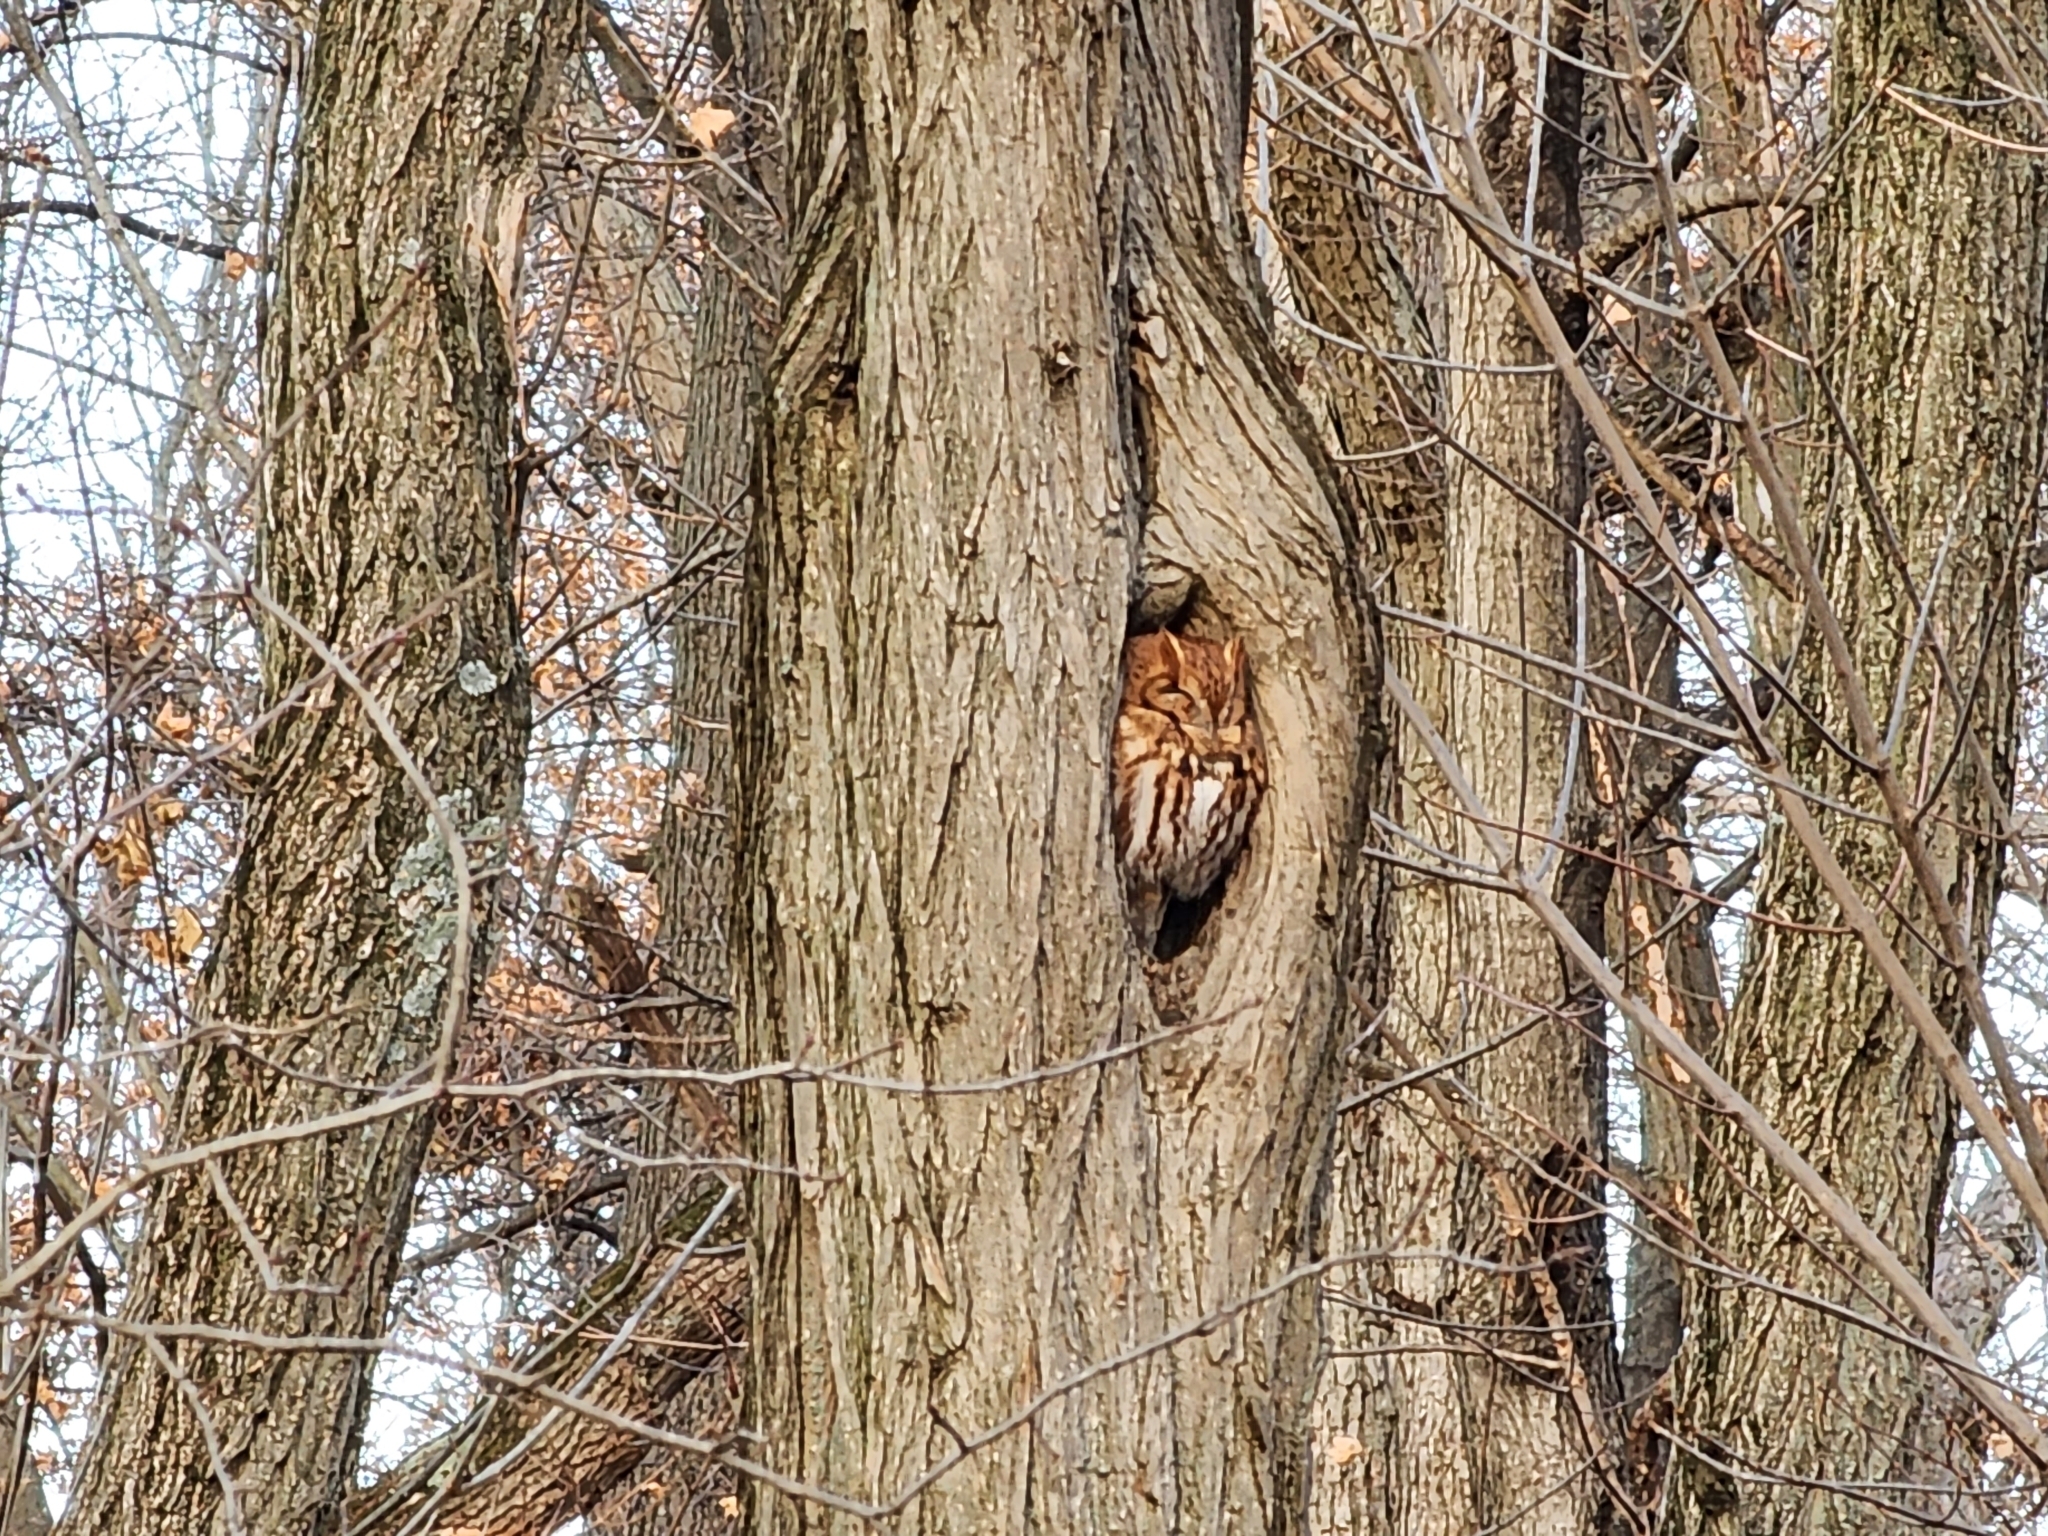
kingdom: Animalia
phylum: Chordata
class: Aves
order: Strigiformes
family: Strigidae
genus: Megascops
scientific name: Megascops asio
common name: Eastern screech-owl
